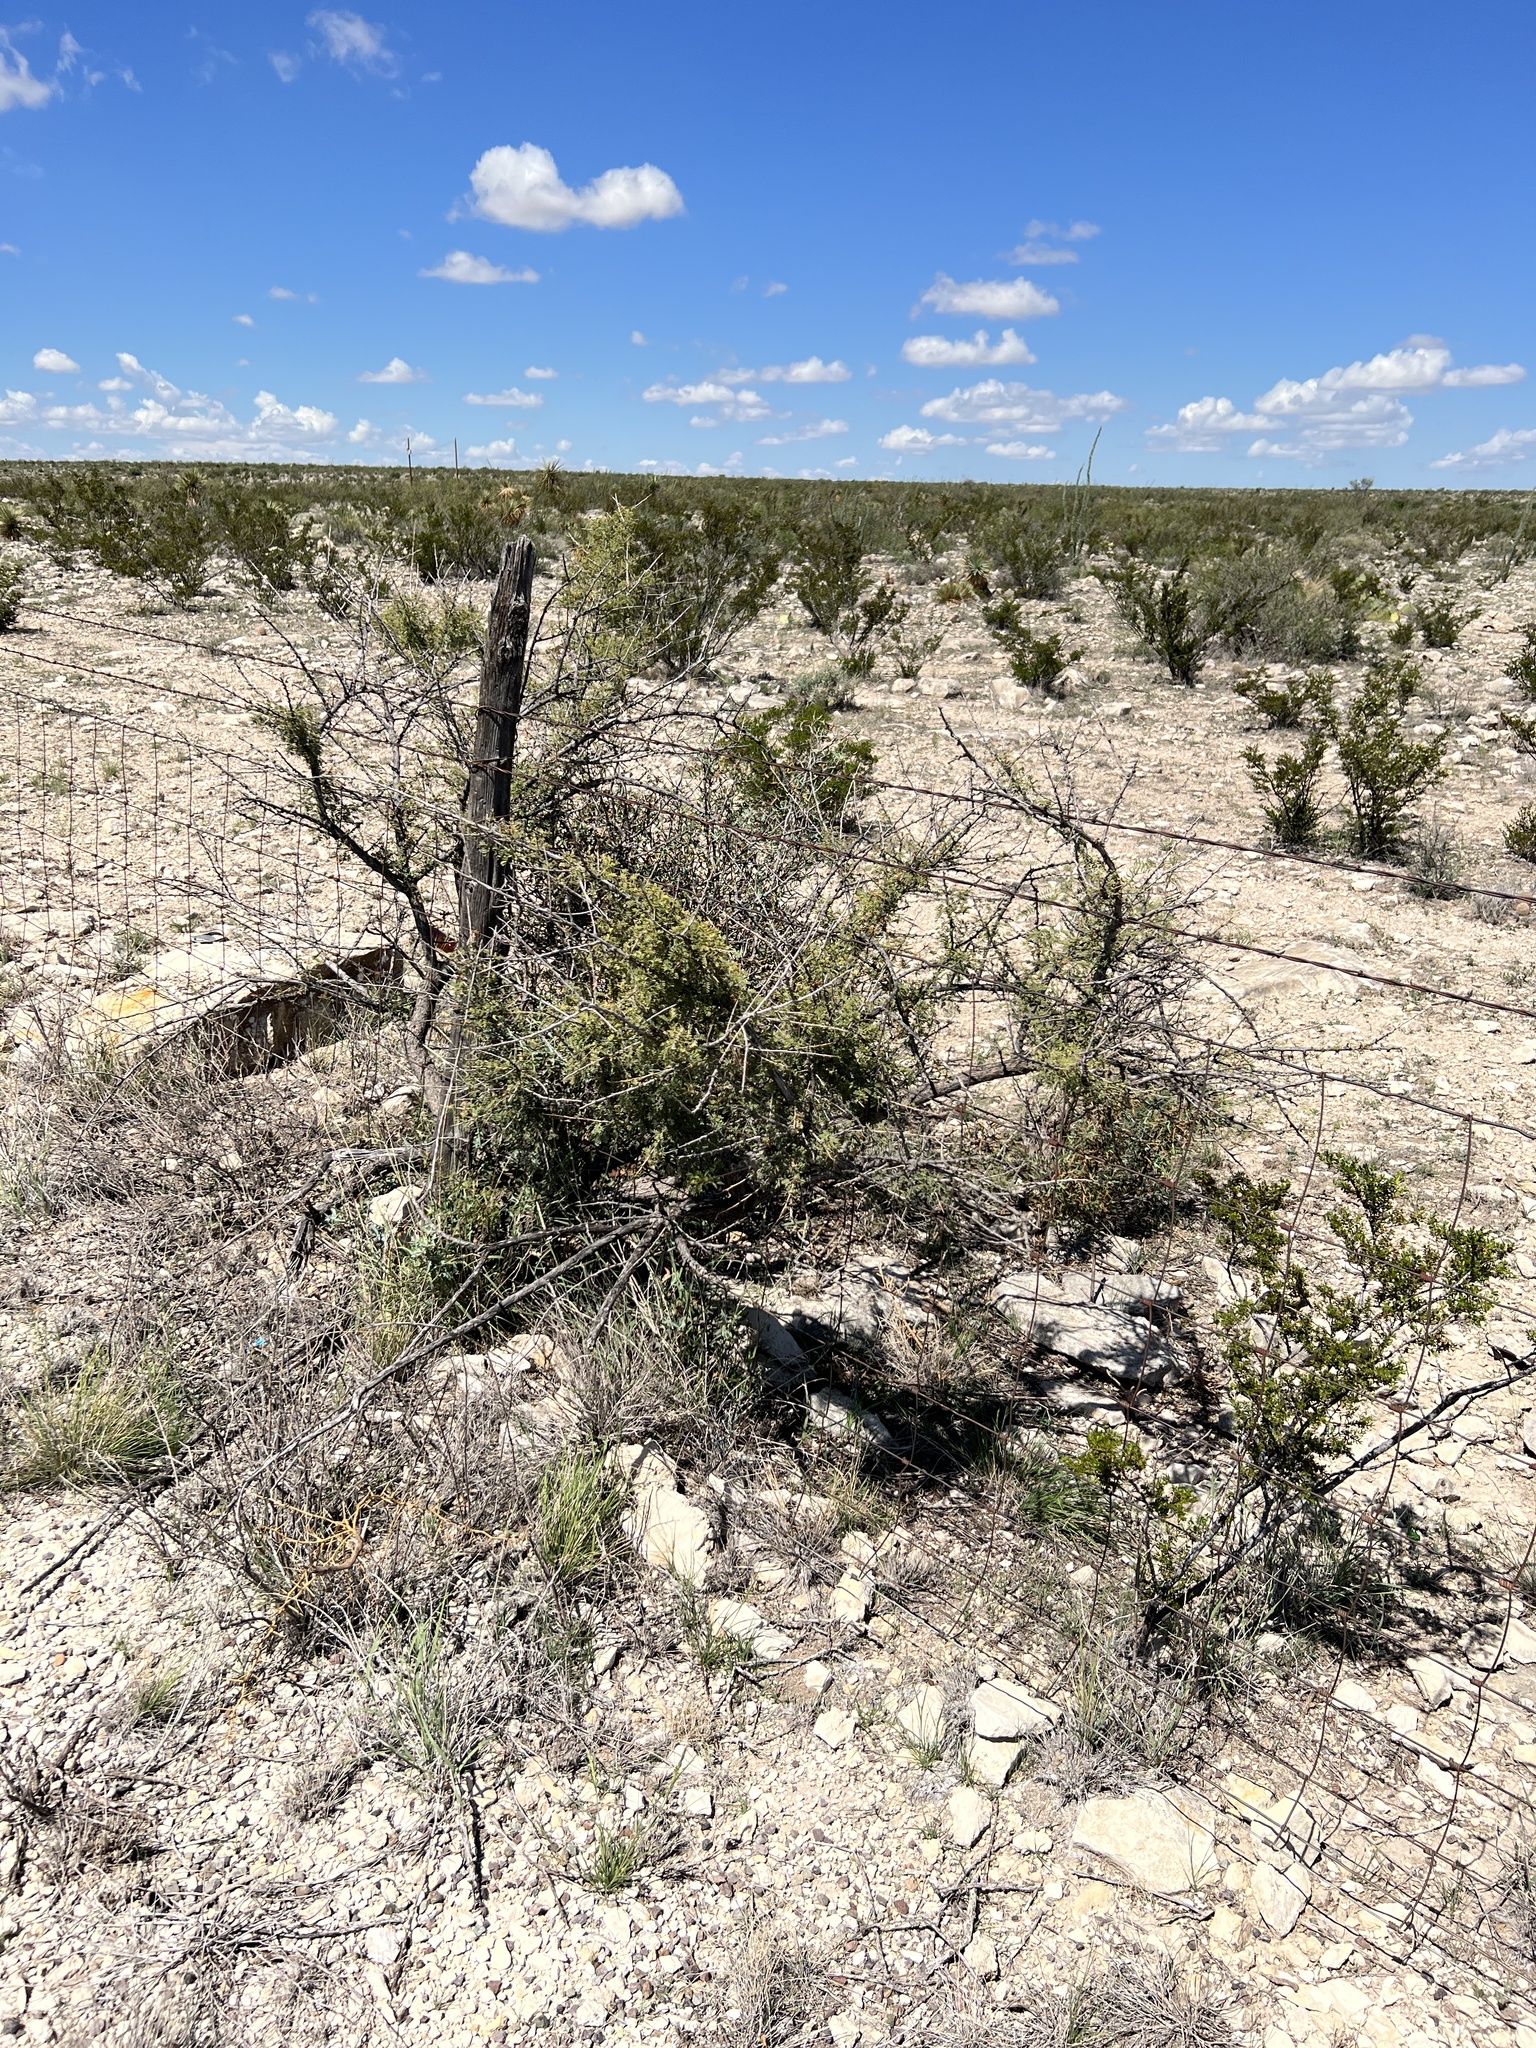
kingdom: Plantae
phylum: Tracheophyta
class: Magnoliopsida
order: Fabales
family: Fabaceae
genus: Senegalia
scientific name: Senegalia greggii
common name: Texas-mimosa
